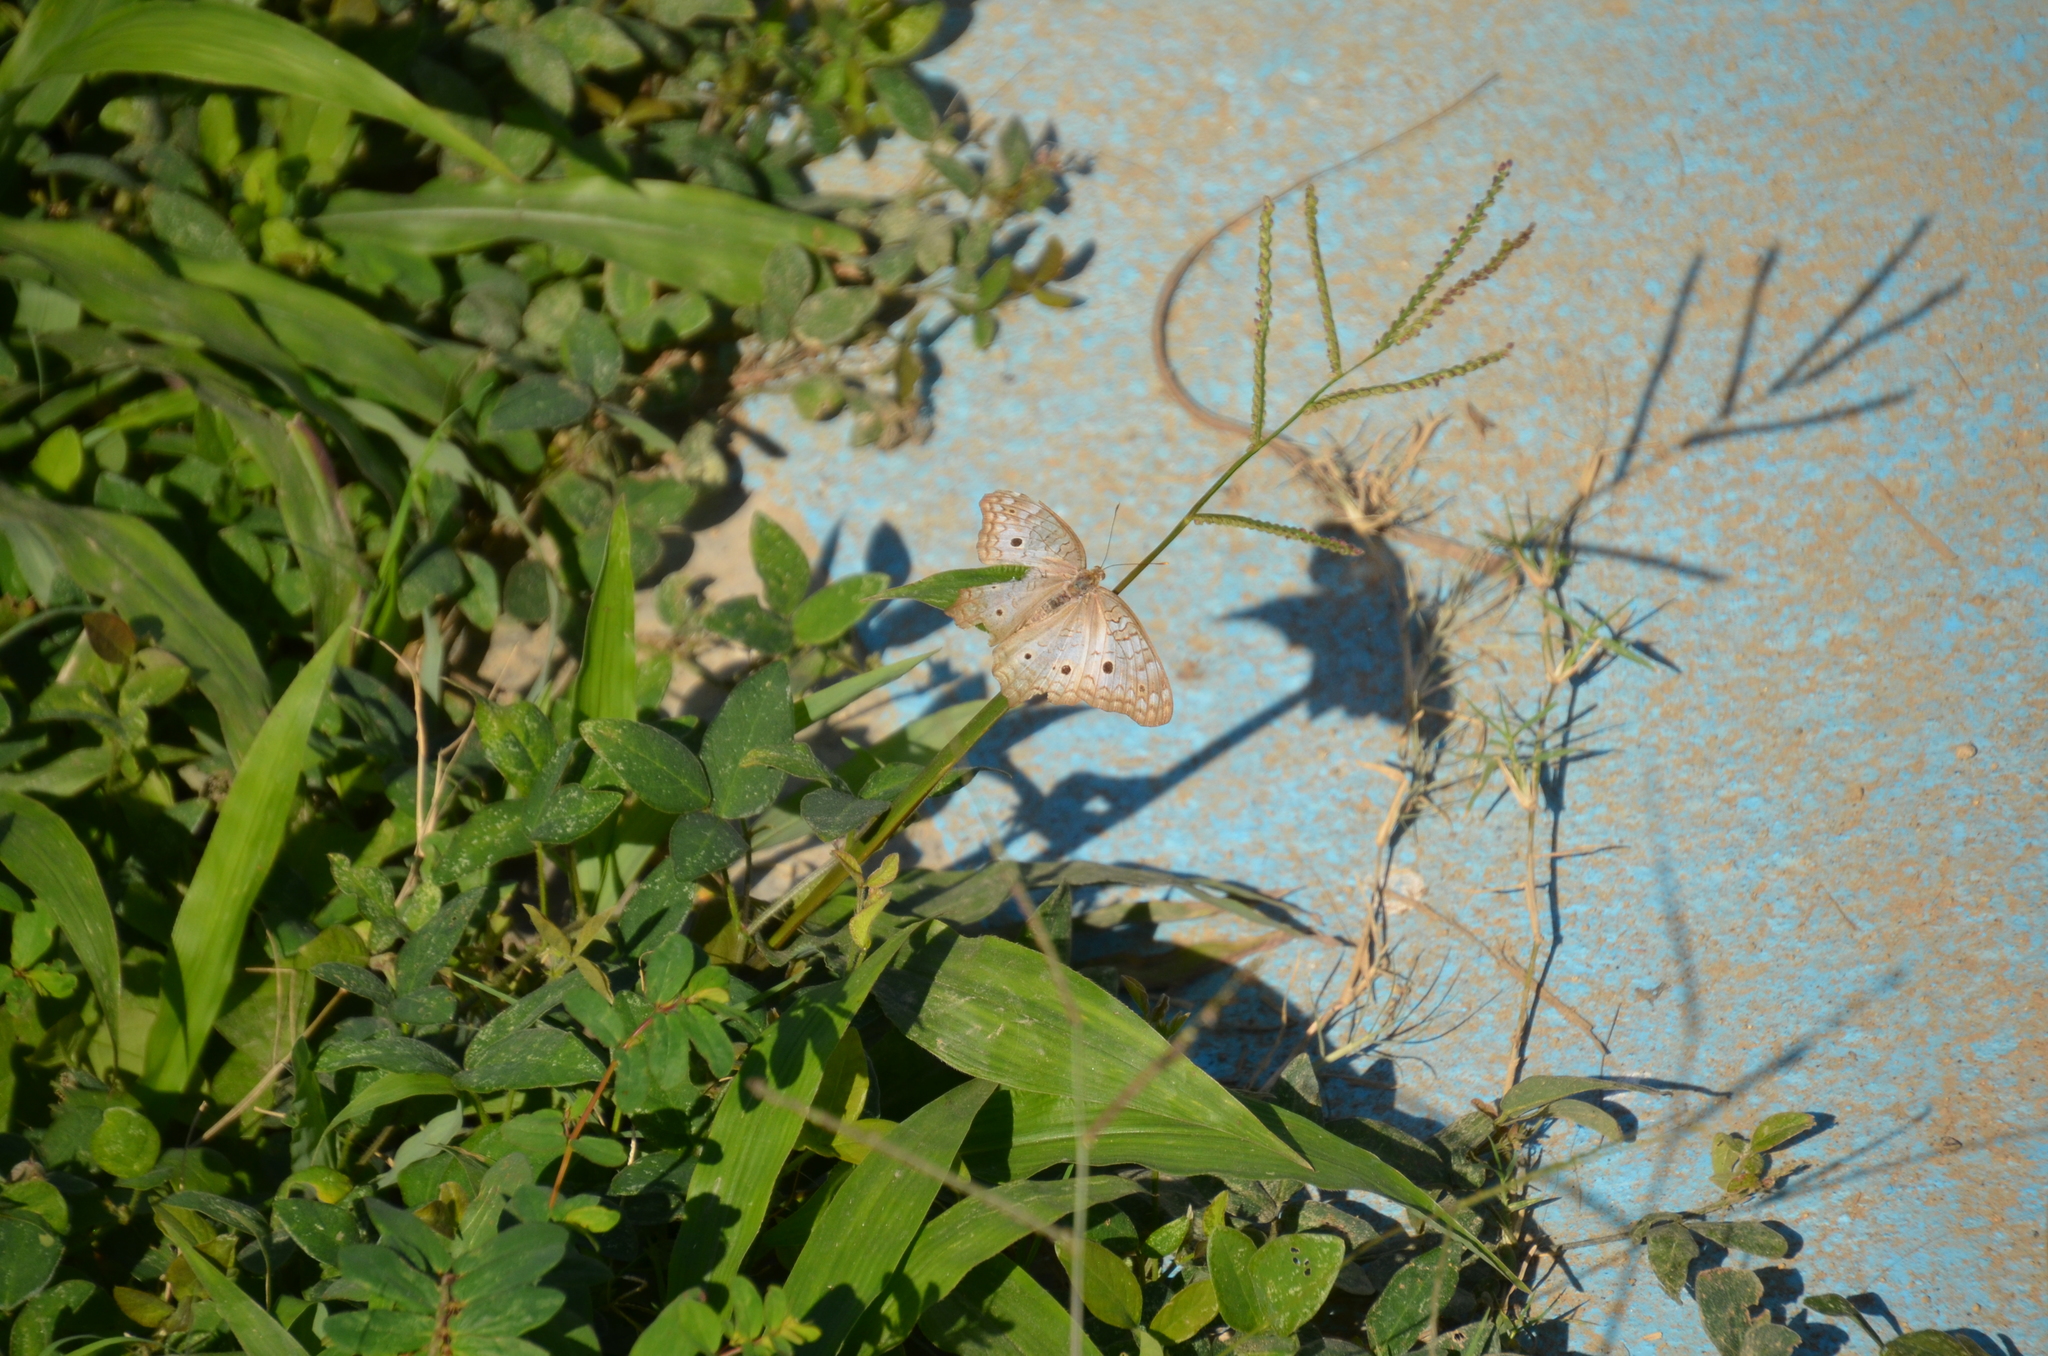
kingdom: Animalia
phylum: Arthropoda
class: Insecta
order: Lepidoptera
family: Nymphalidae
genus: Anartia
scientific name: Anartia jatrophae
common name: White peacock
